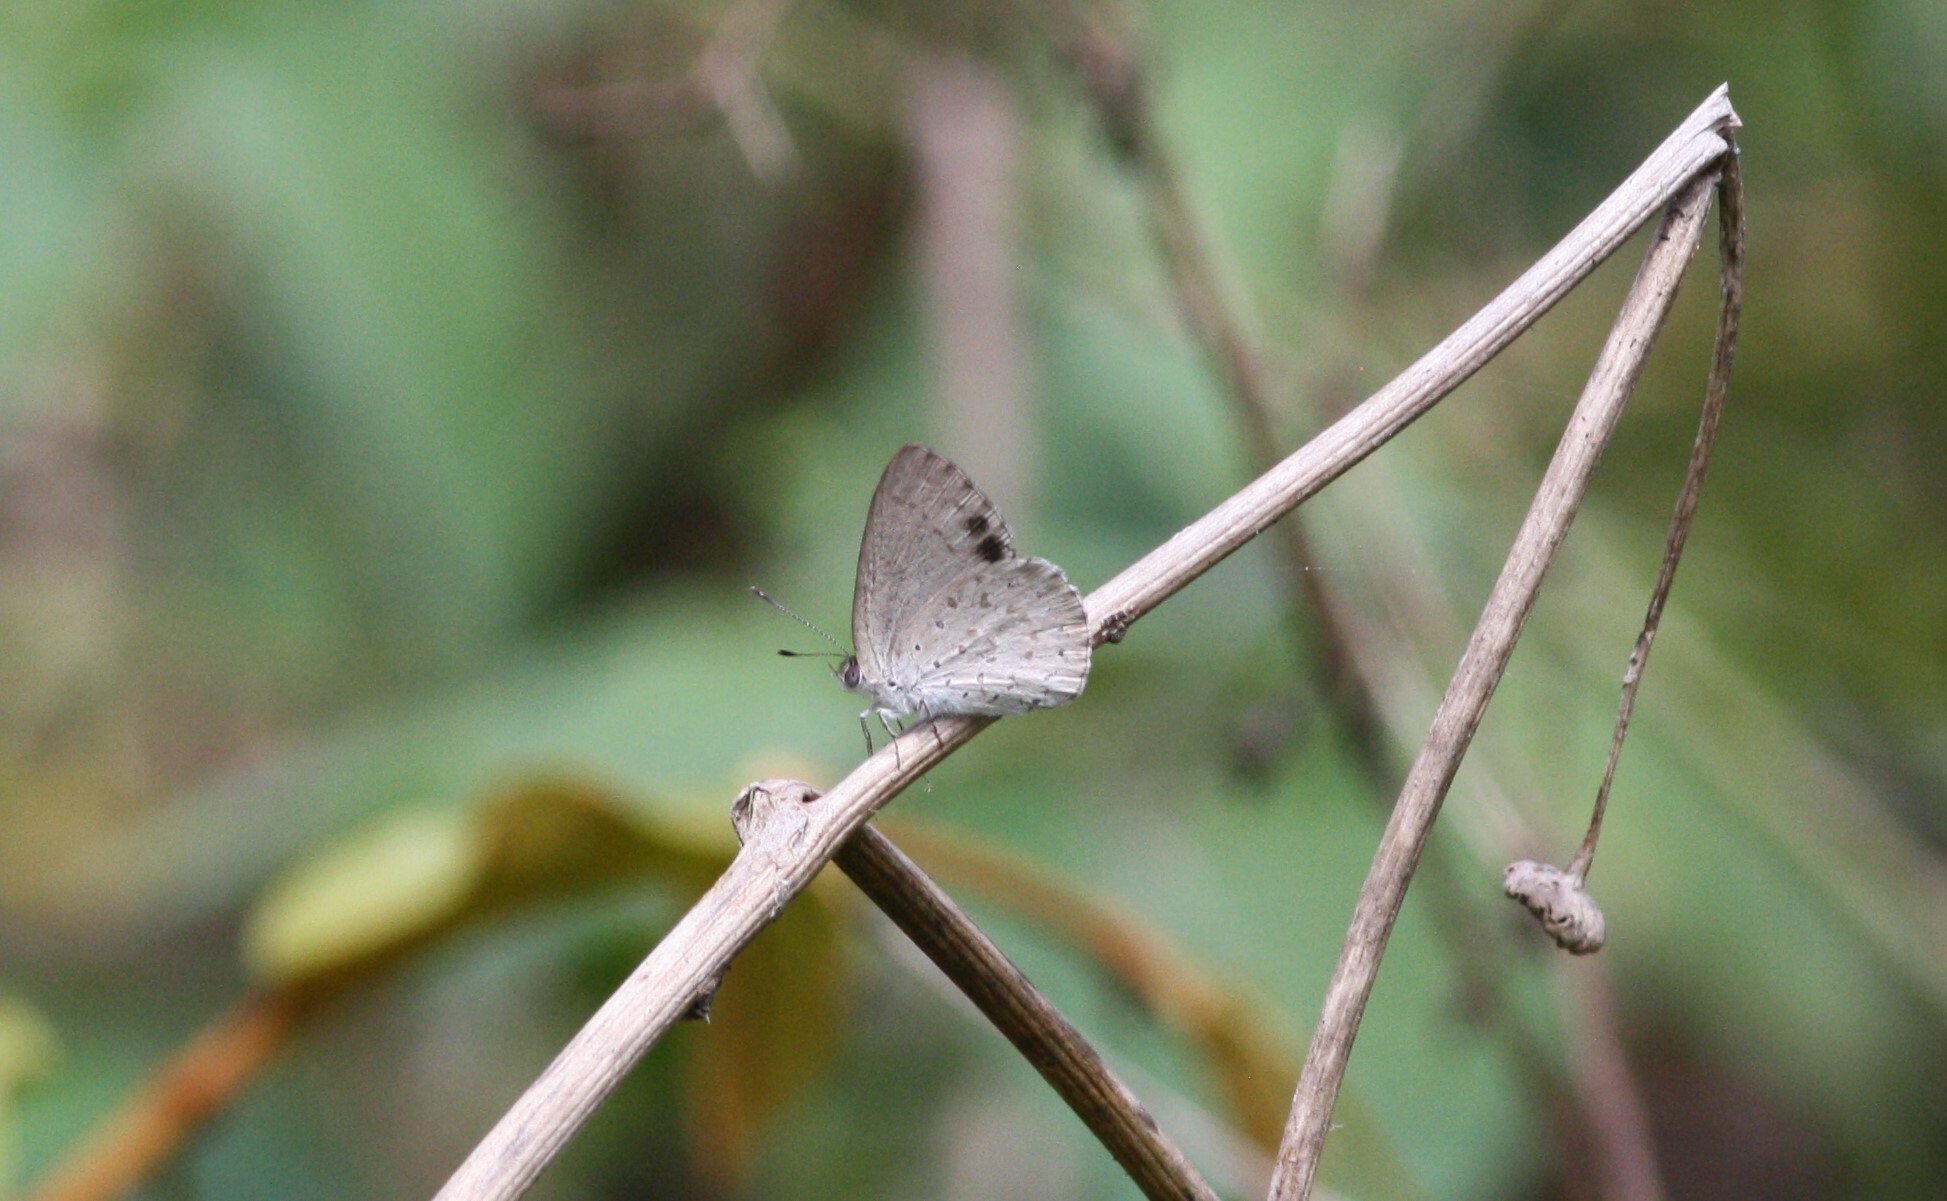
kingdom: Animalia
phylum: Arthropoda
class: Insecta
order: Lepidoptera
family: Lycaenidae
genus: Candalides
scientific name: Candalides
